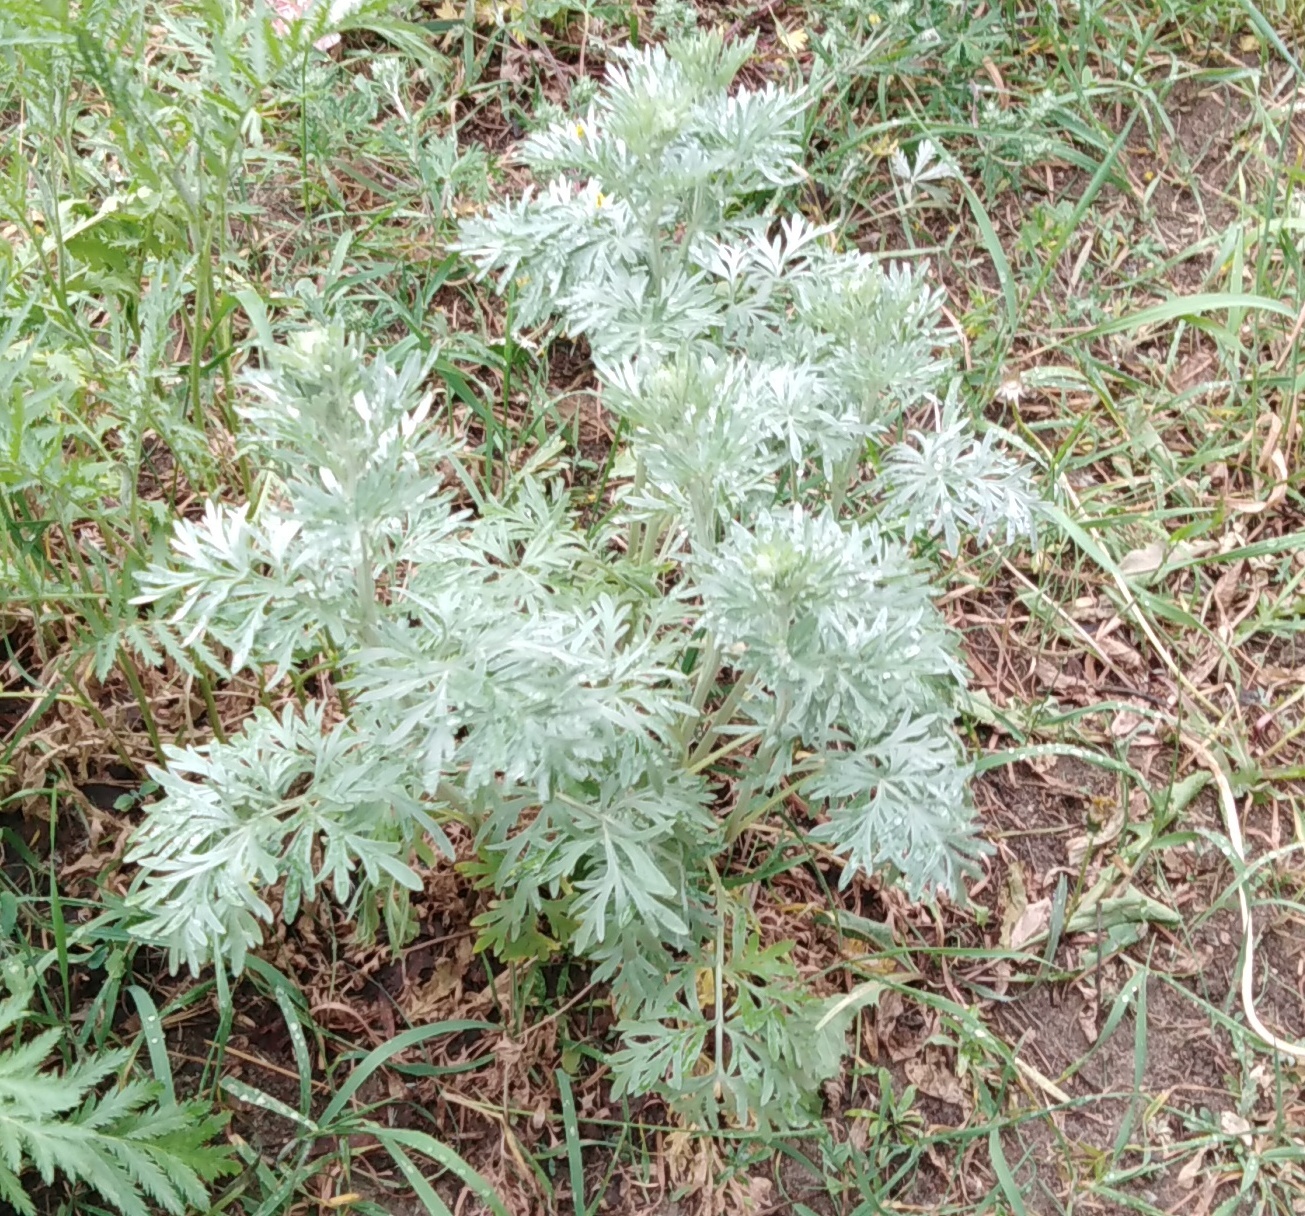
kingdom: Plantae
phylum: Tracheophyta
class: Magnoliopsida
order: Asterales
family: Asteraceae
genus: Artemisia
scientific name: Artemisia absinthium
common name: Wormwood
